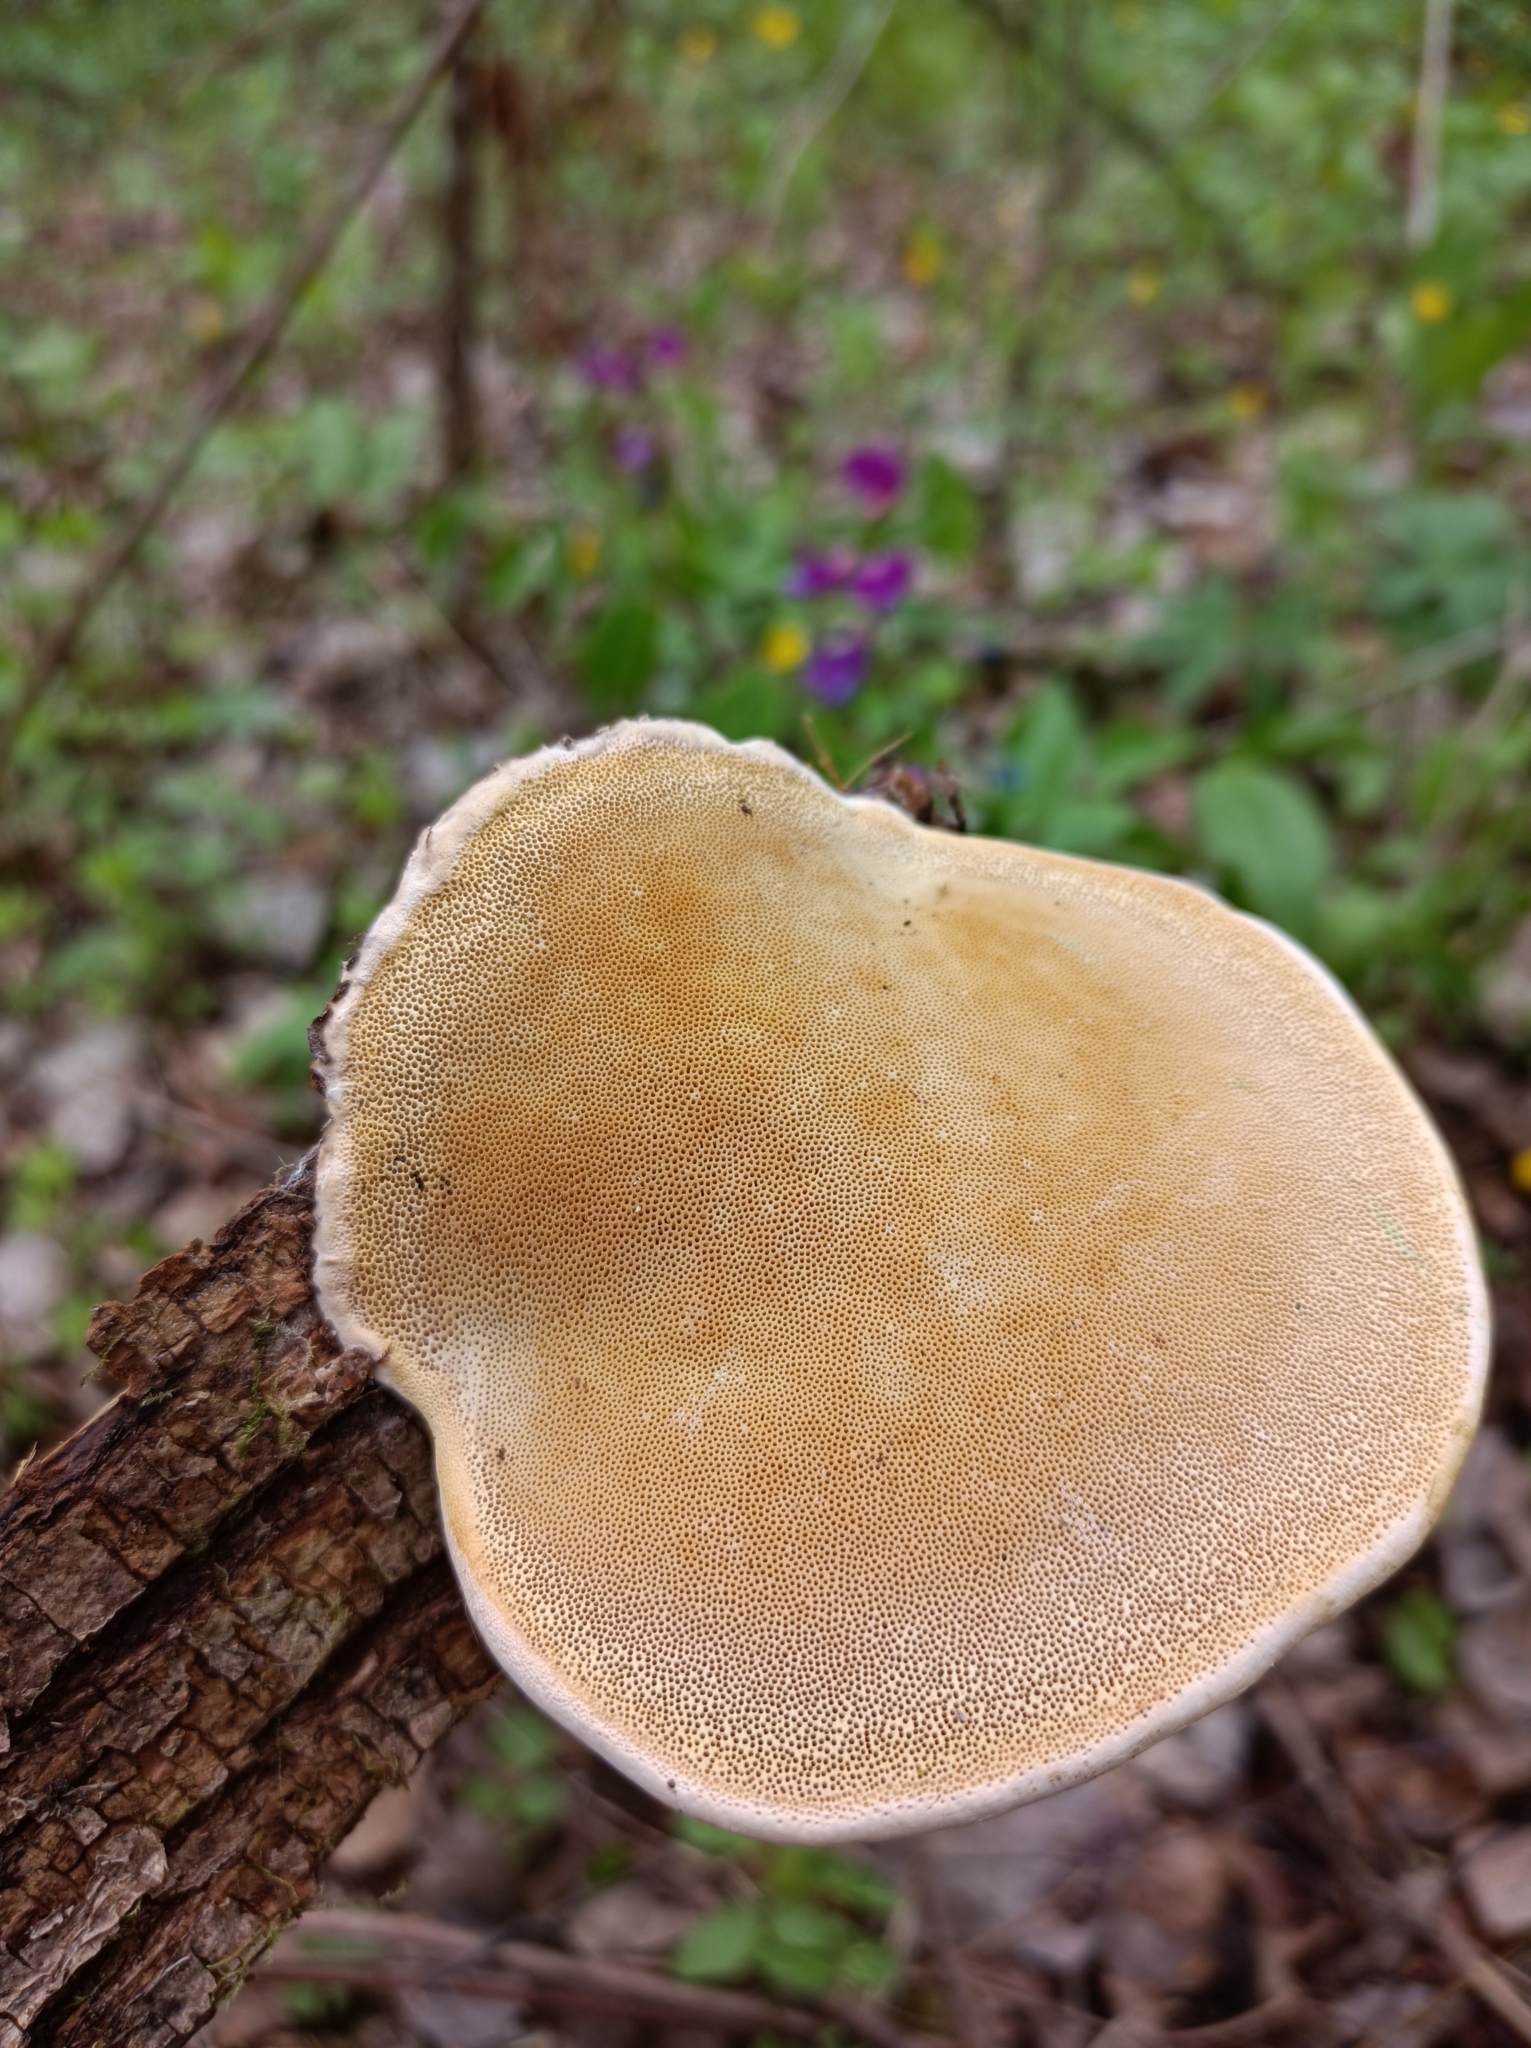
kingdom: Fungi
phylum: Basidiomycota
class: Agaricomycetes
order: Polyporales
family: Fomitopsidaceae
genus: Fomitopsis
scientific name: Fomitopsis pinicola
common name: Red-belted bracket
